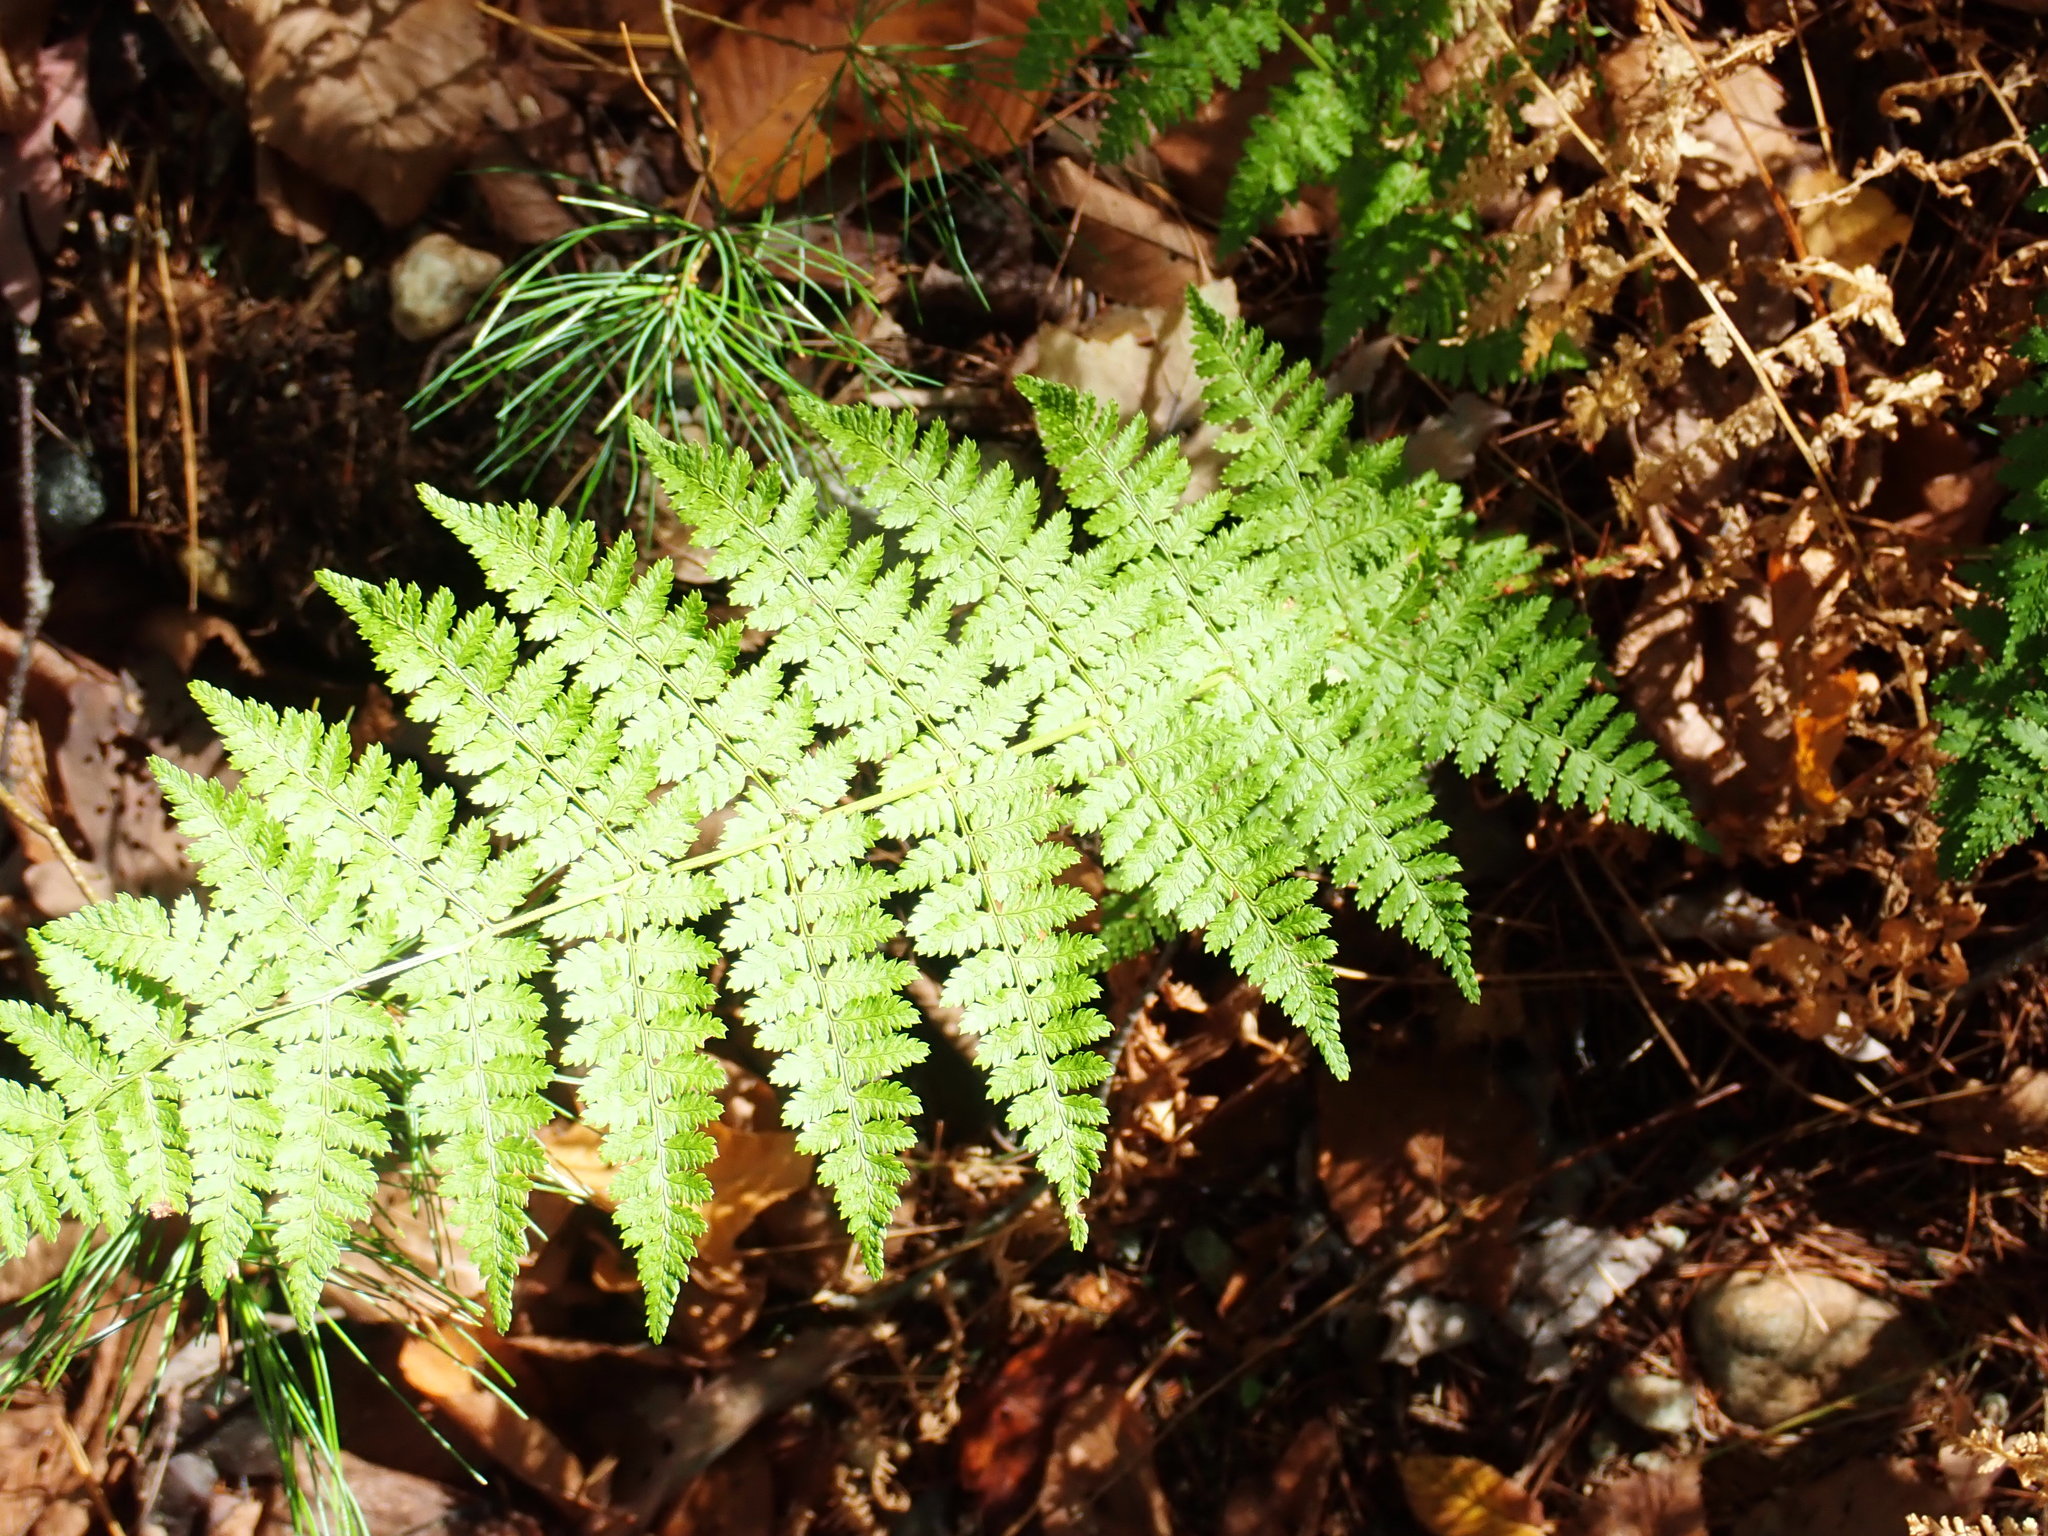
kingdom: Plantae
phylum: Tracheophyta
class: Polypodiopsida
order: Polypodiales
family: Dryopteridaceae
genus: Dryopteris
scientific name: Dryopteris intermedia
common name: Evergreen wood fern
